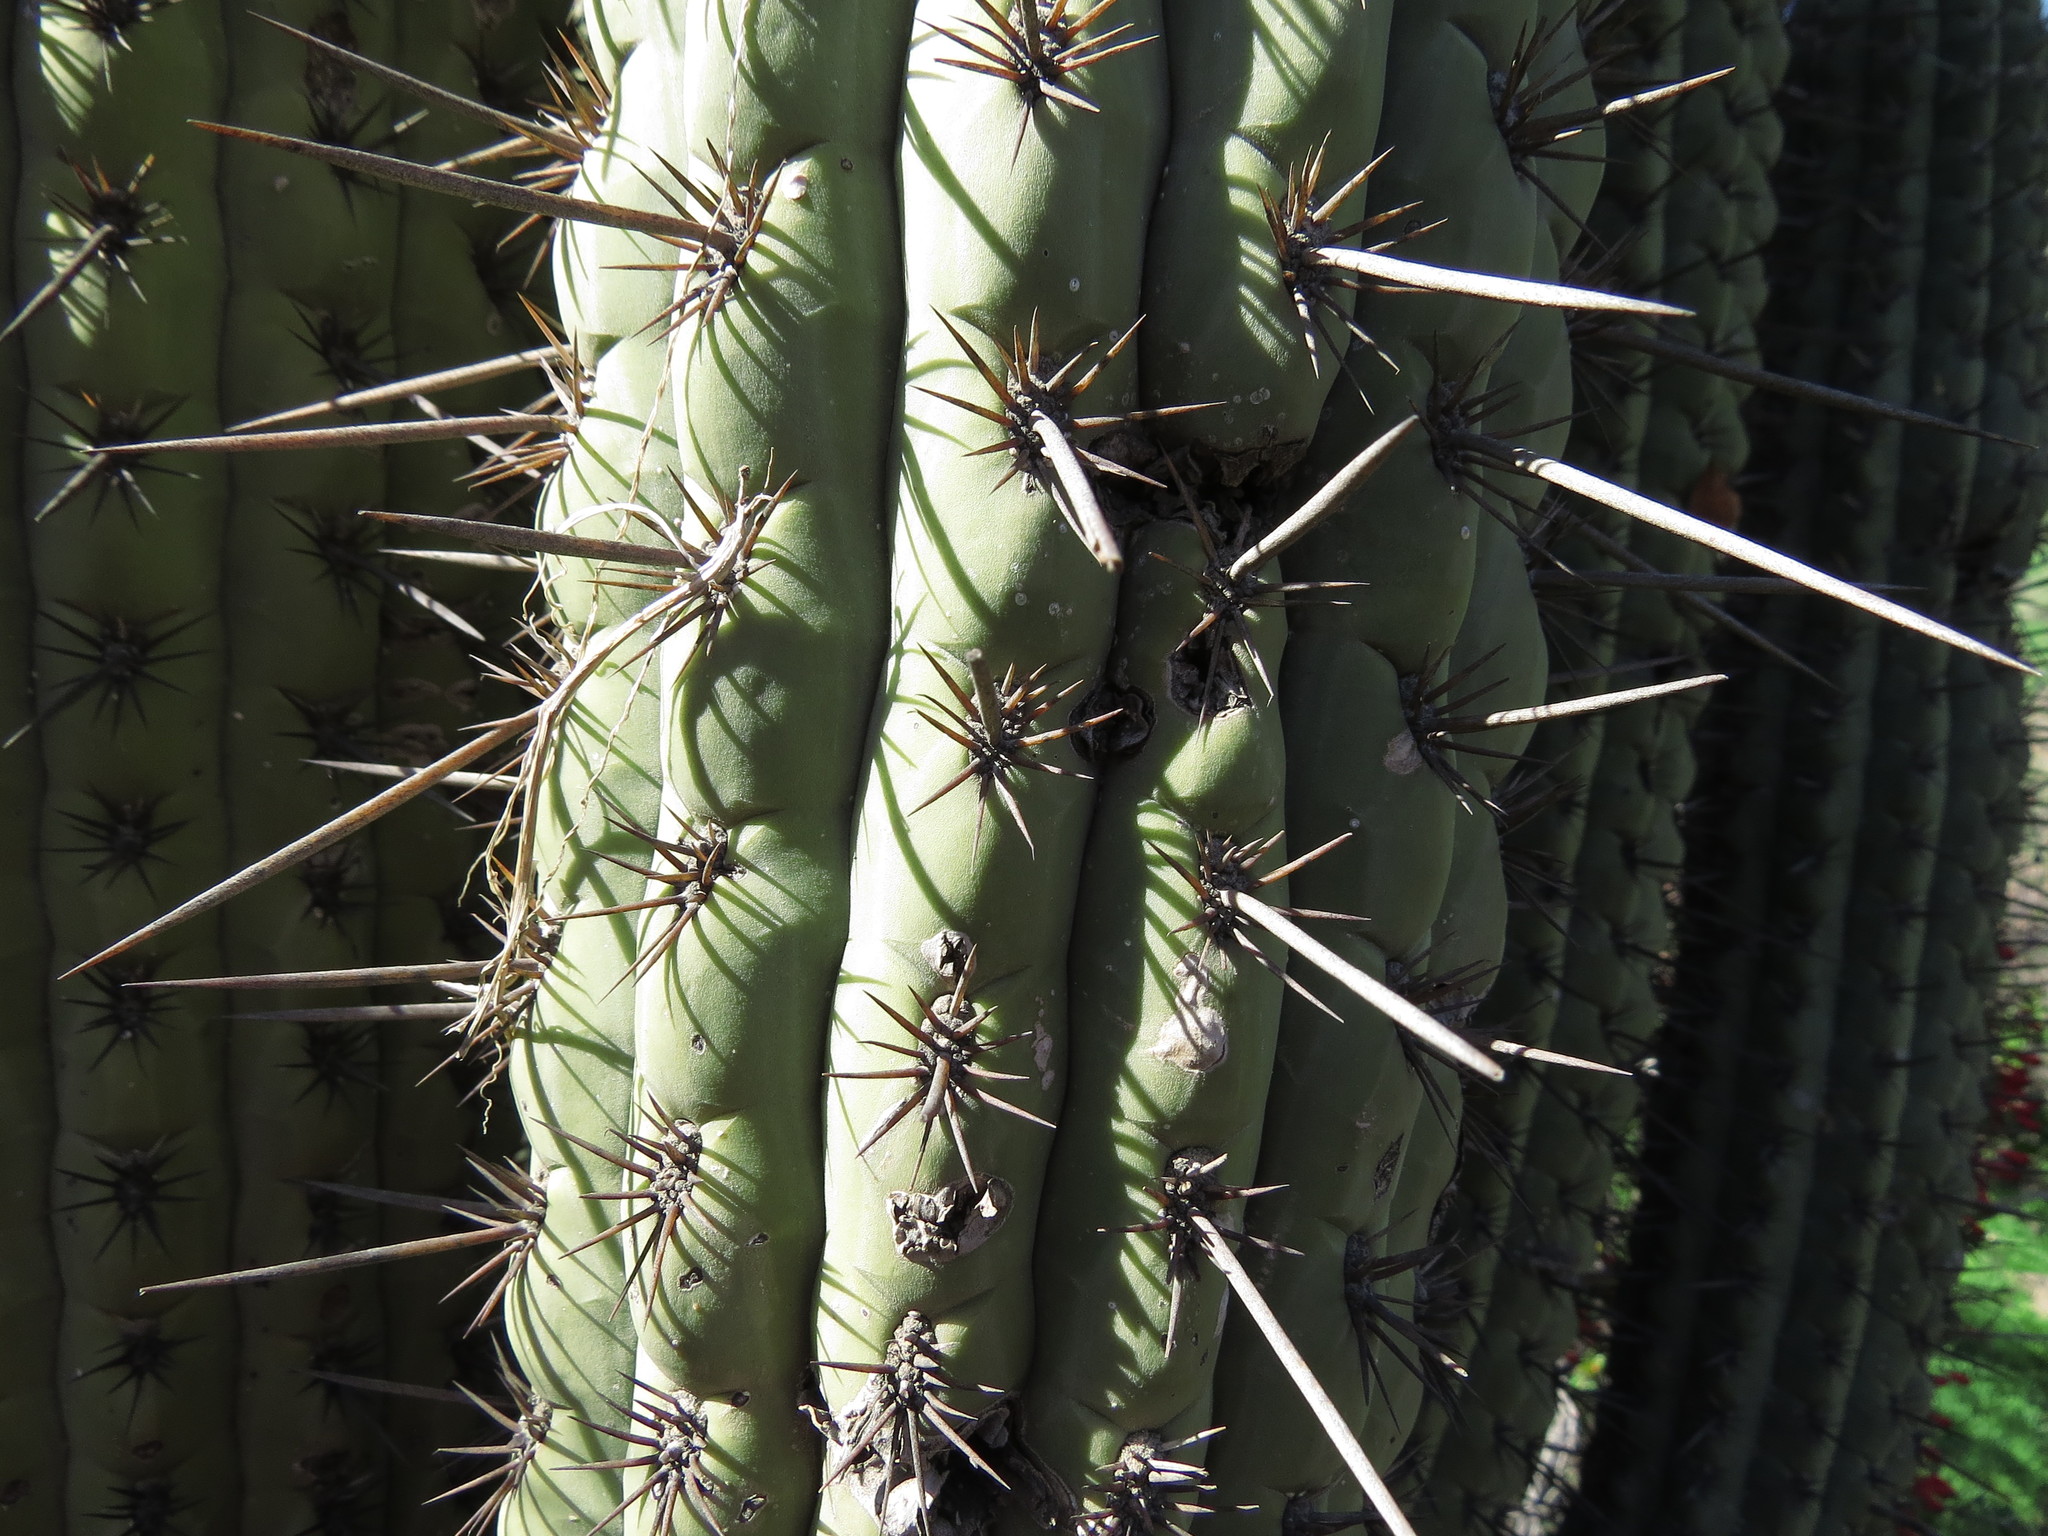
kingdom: Plantae
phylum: Tracheophyta
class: Magnoliopsida
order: Caryophyllales
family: Cactaceae
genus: Leucostele
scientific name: Leucostele chiloensis
